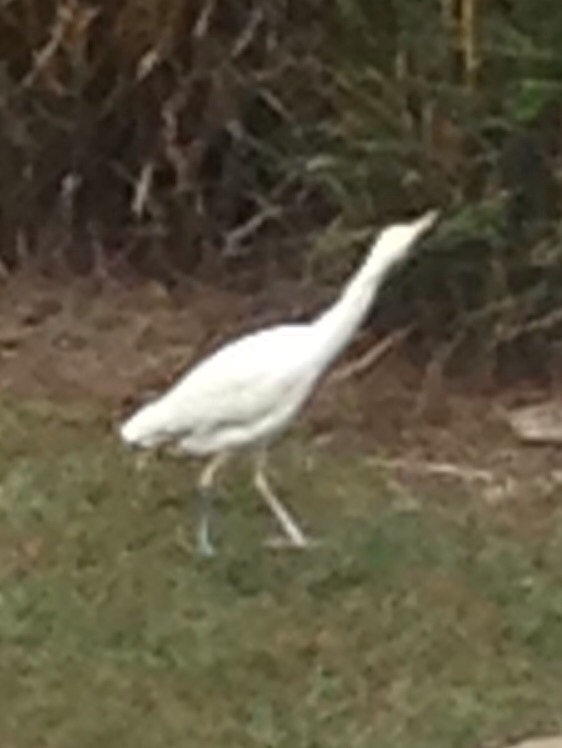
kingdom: Animalia
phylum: Chordata
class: Aves
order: Pelecaniformes
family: Ardeidae
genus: Bubulcus
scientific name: Bubulcus ibis
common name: Cattle egret
